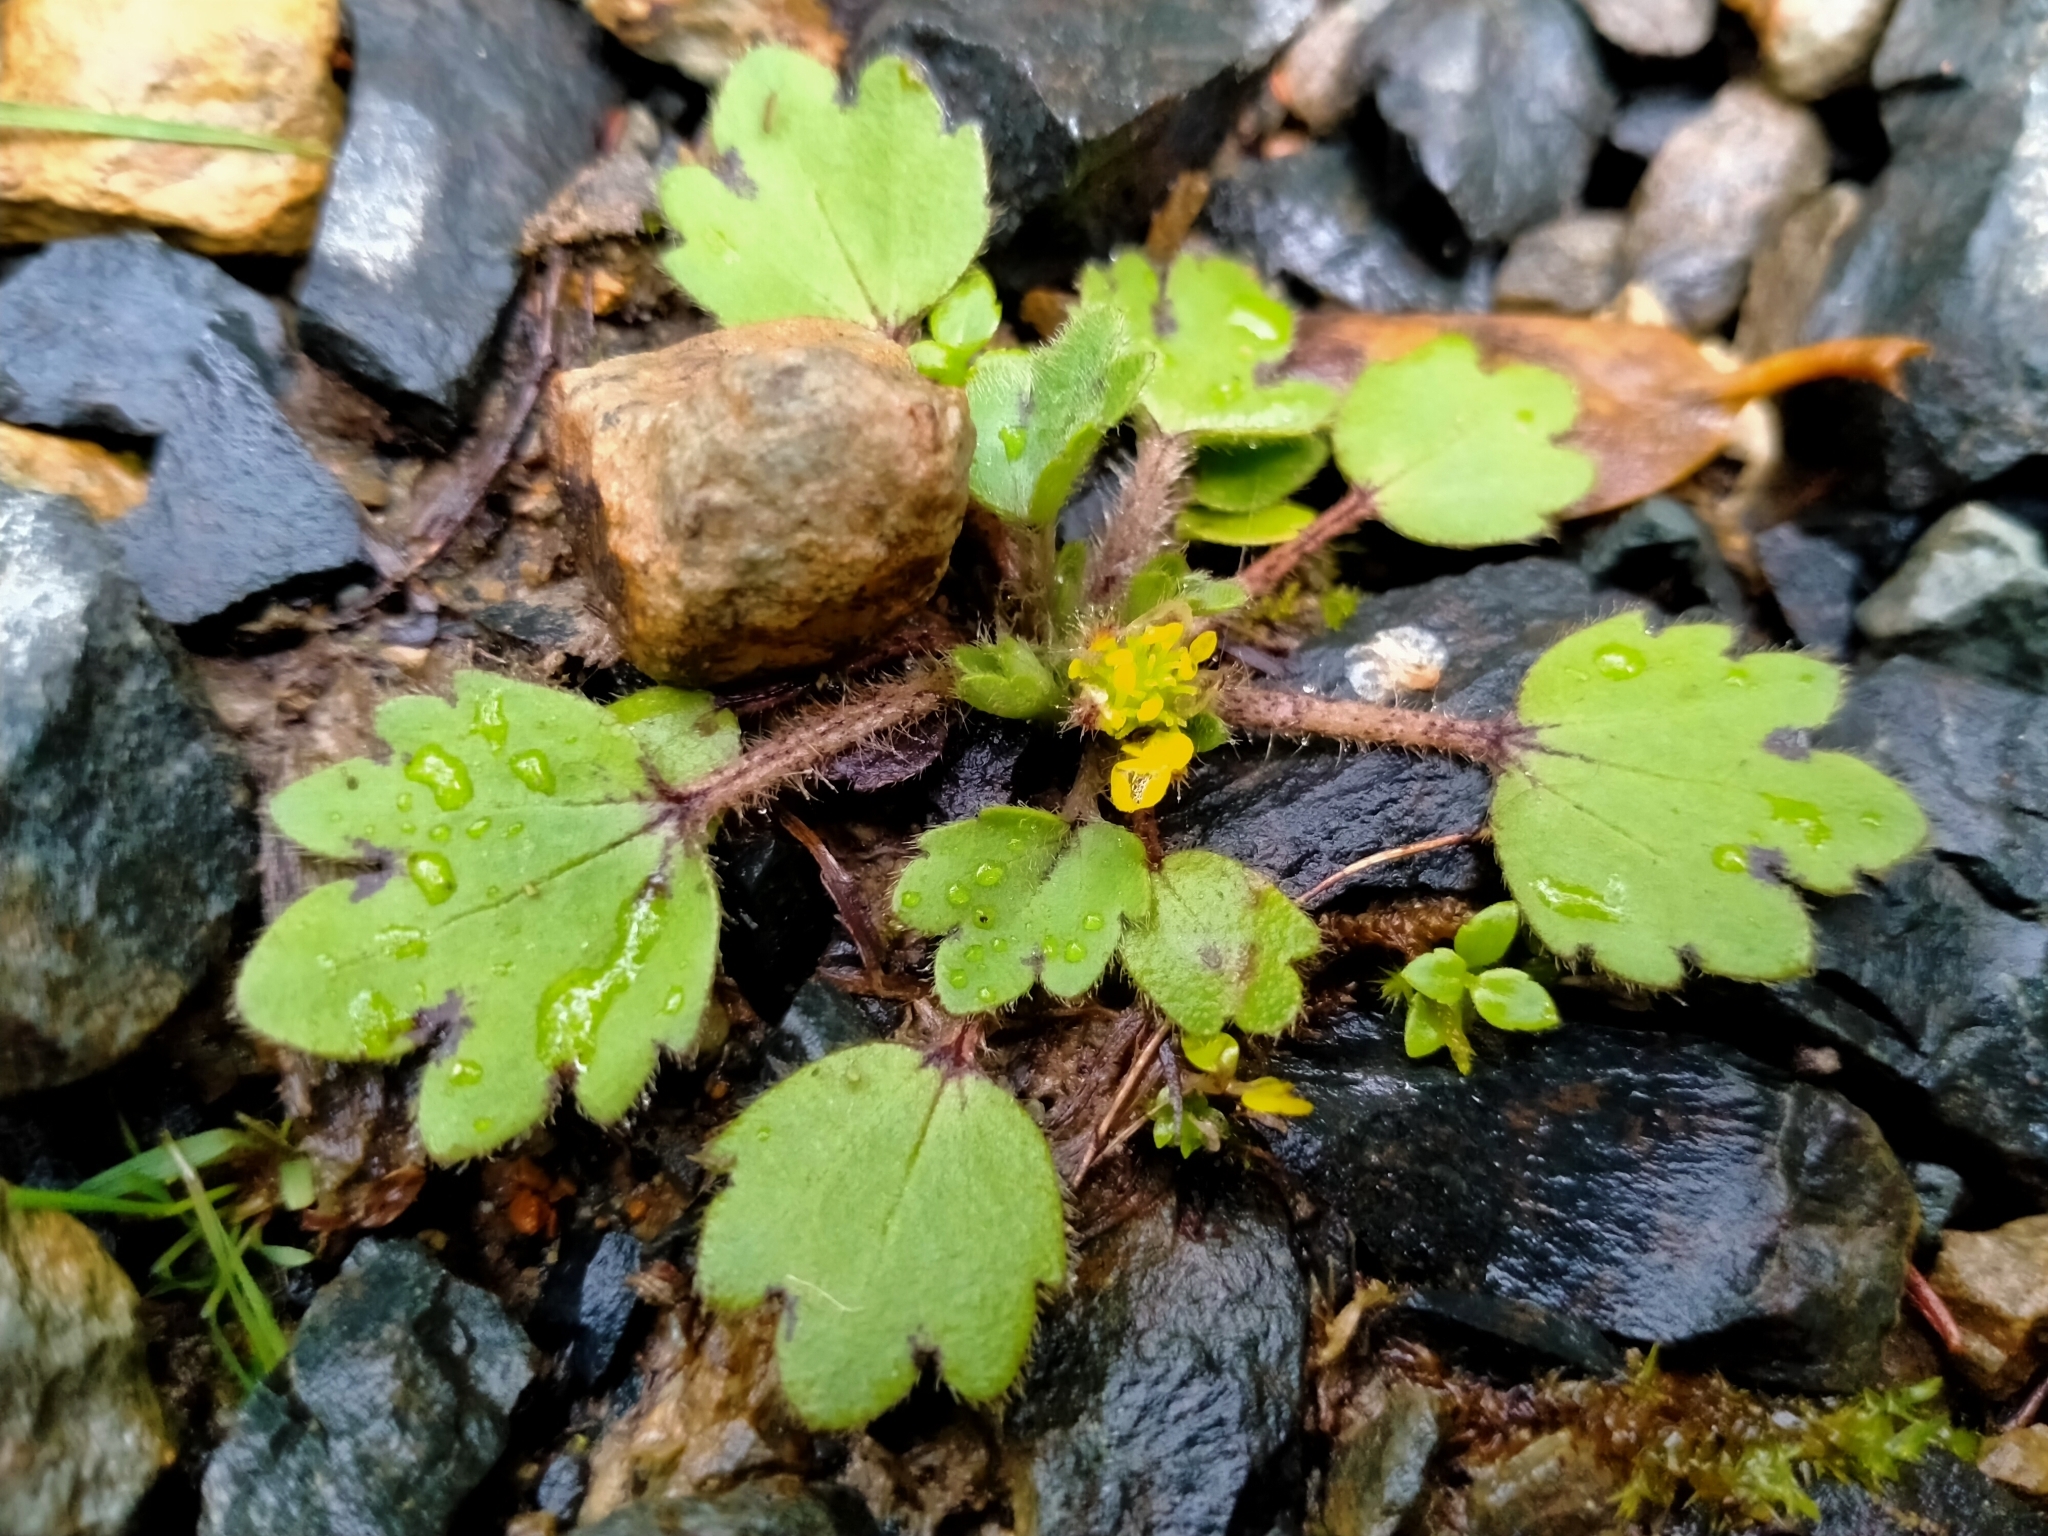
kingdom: Plantae
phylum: Tracheophyta
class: Magnoliopsida
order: Ranunculales
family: Ranunculaceae
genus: Ranunculus
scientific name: Ranunculus foliosus
